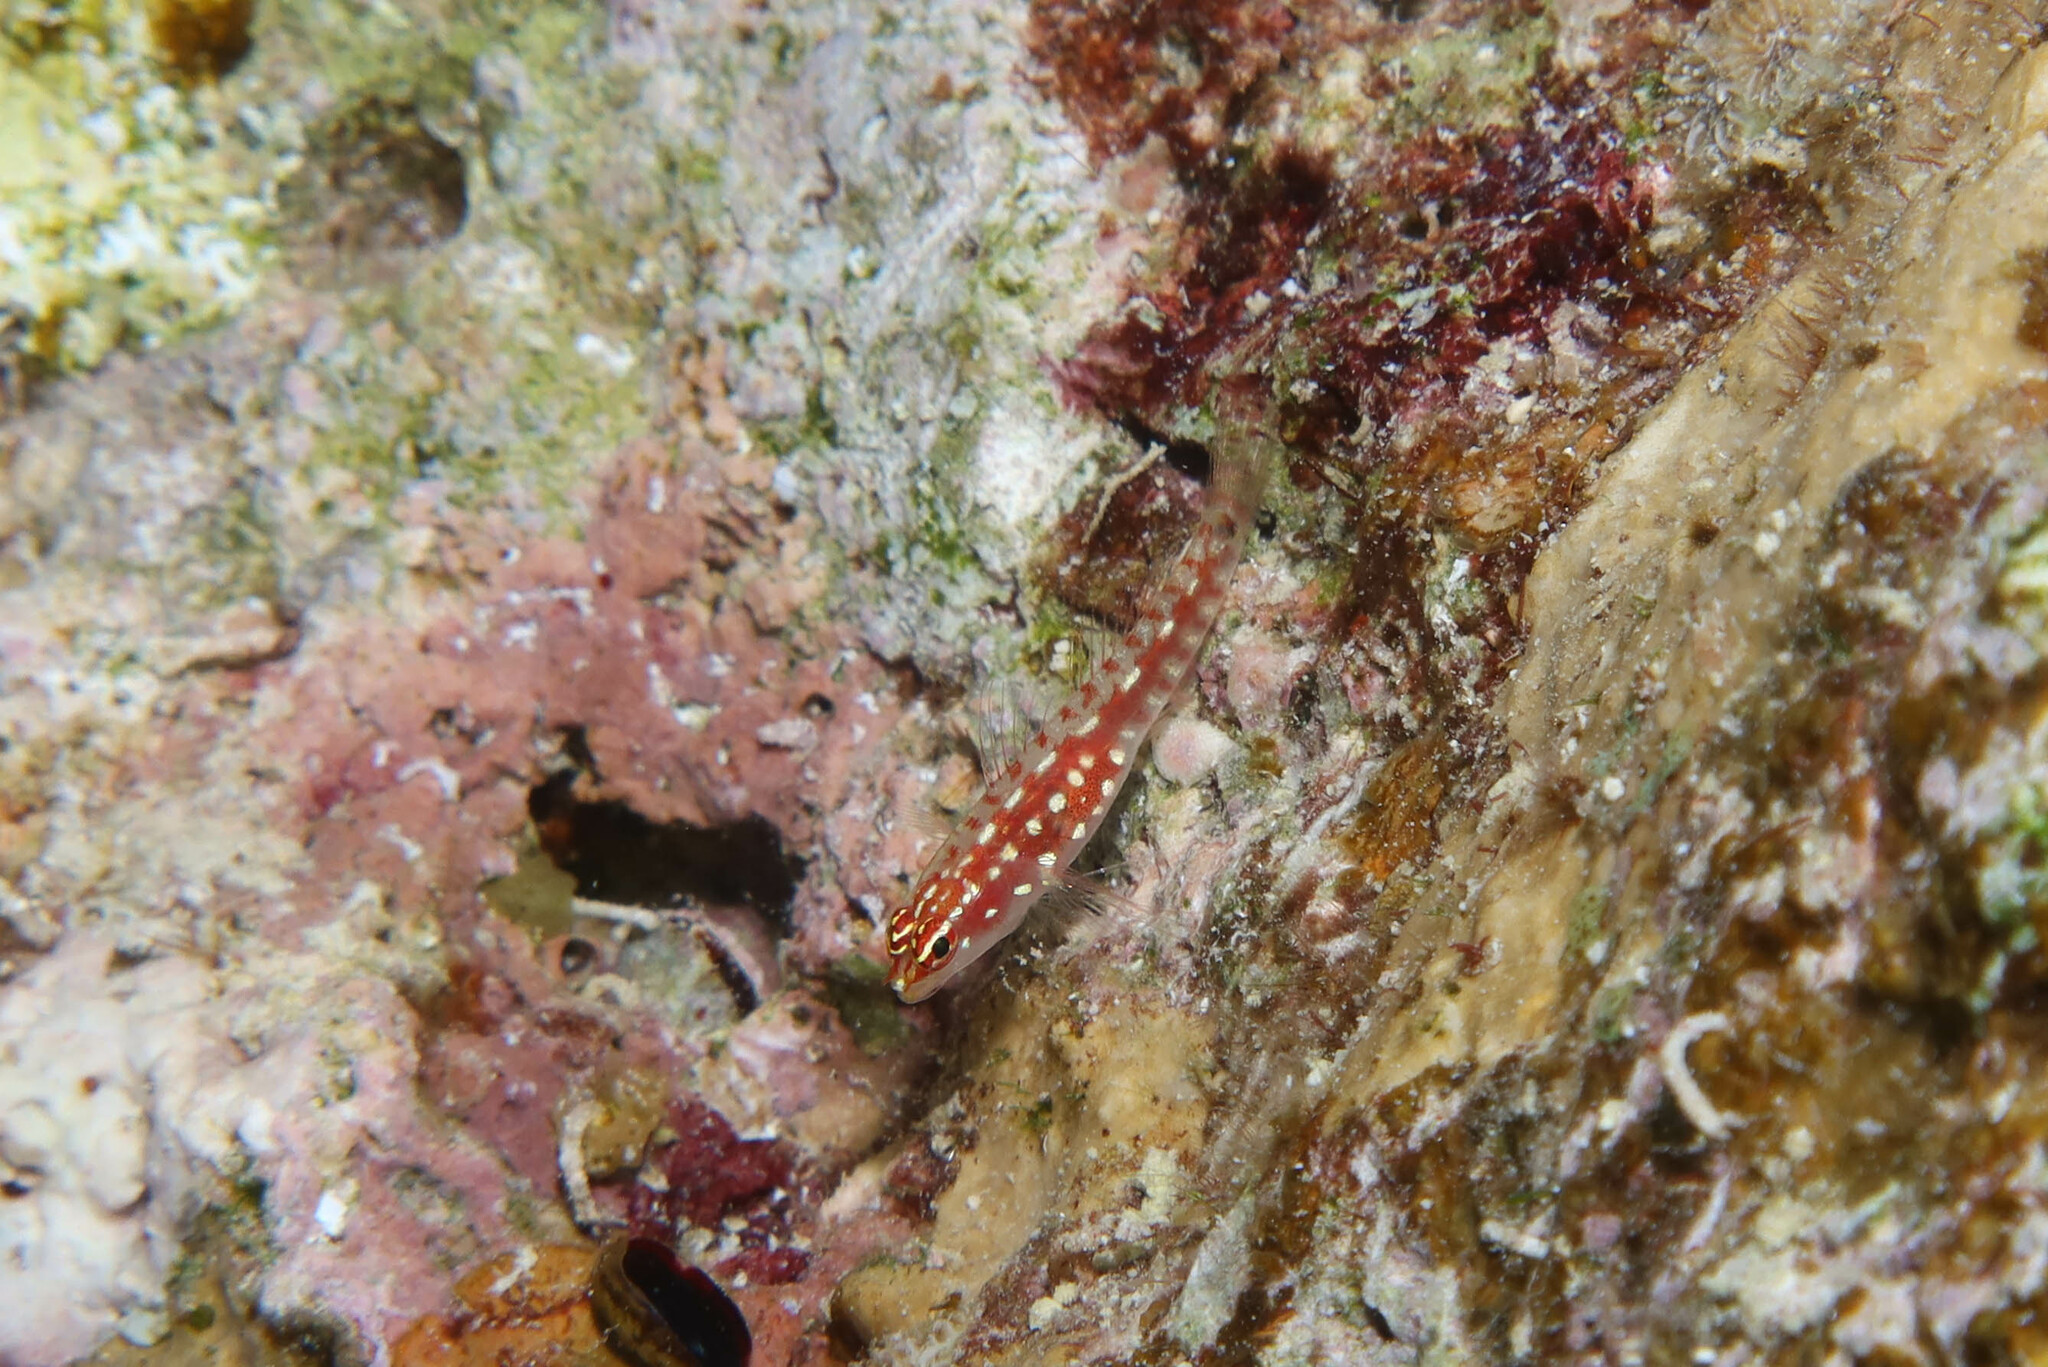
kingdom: Animalia
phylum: Chordata
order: Perciformes
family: Gobiidae
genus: Eviota
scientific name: Eviota marerubrum
